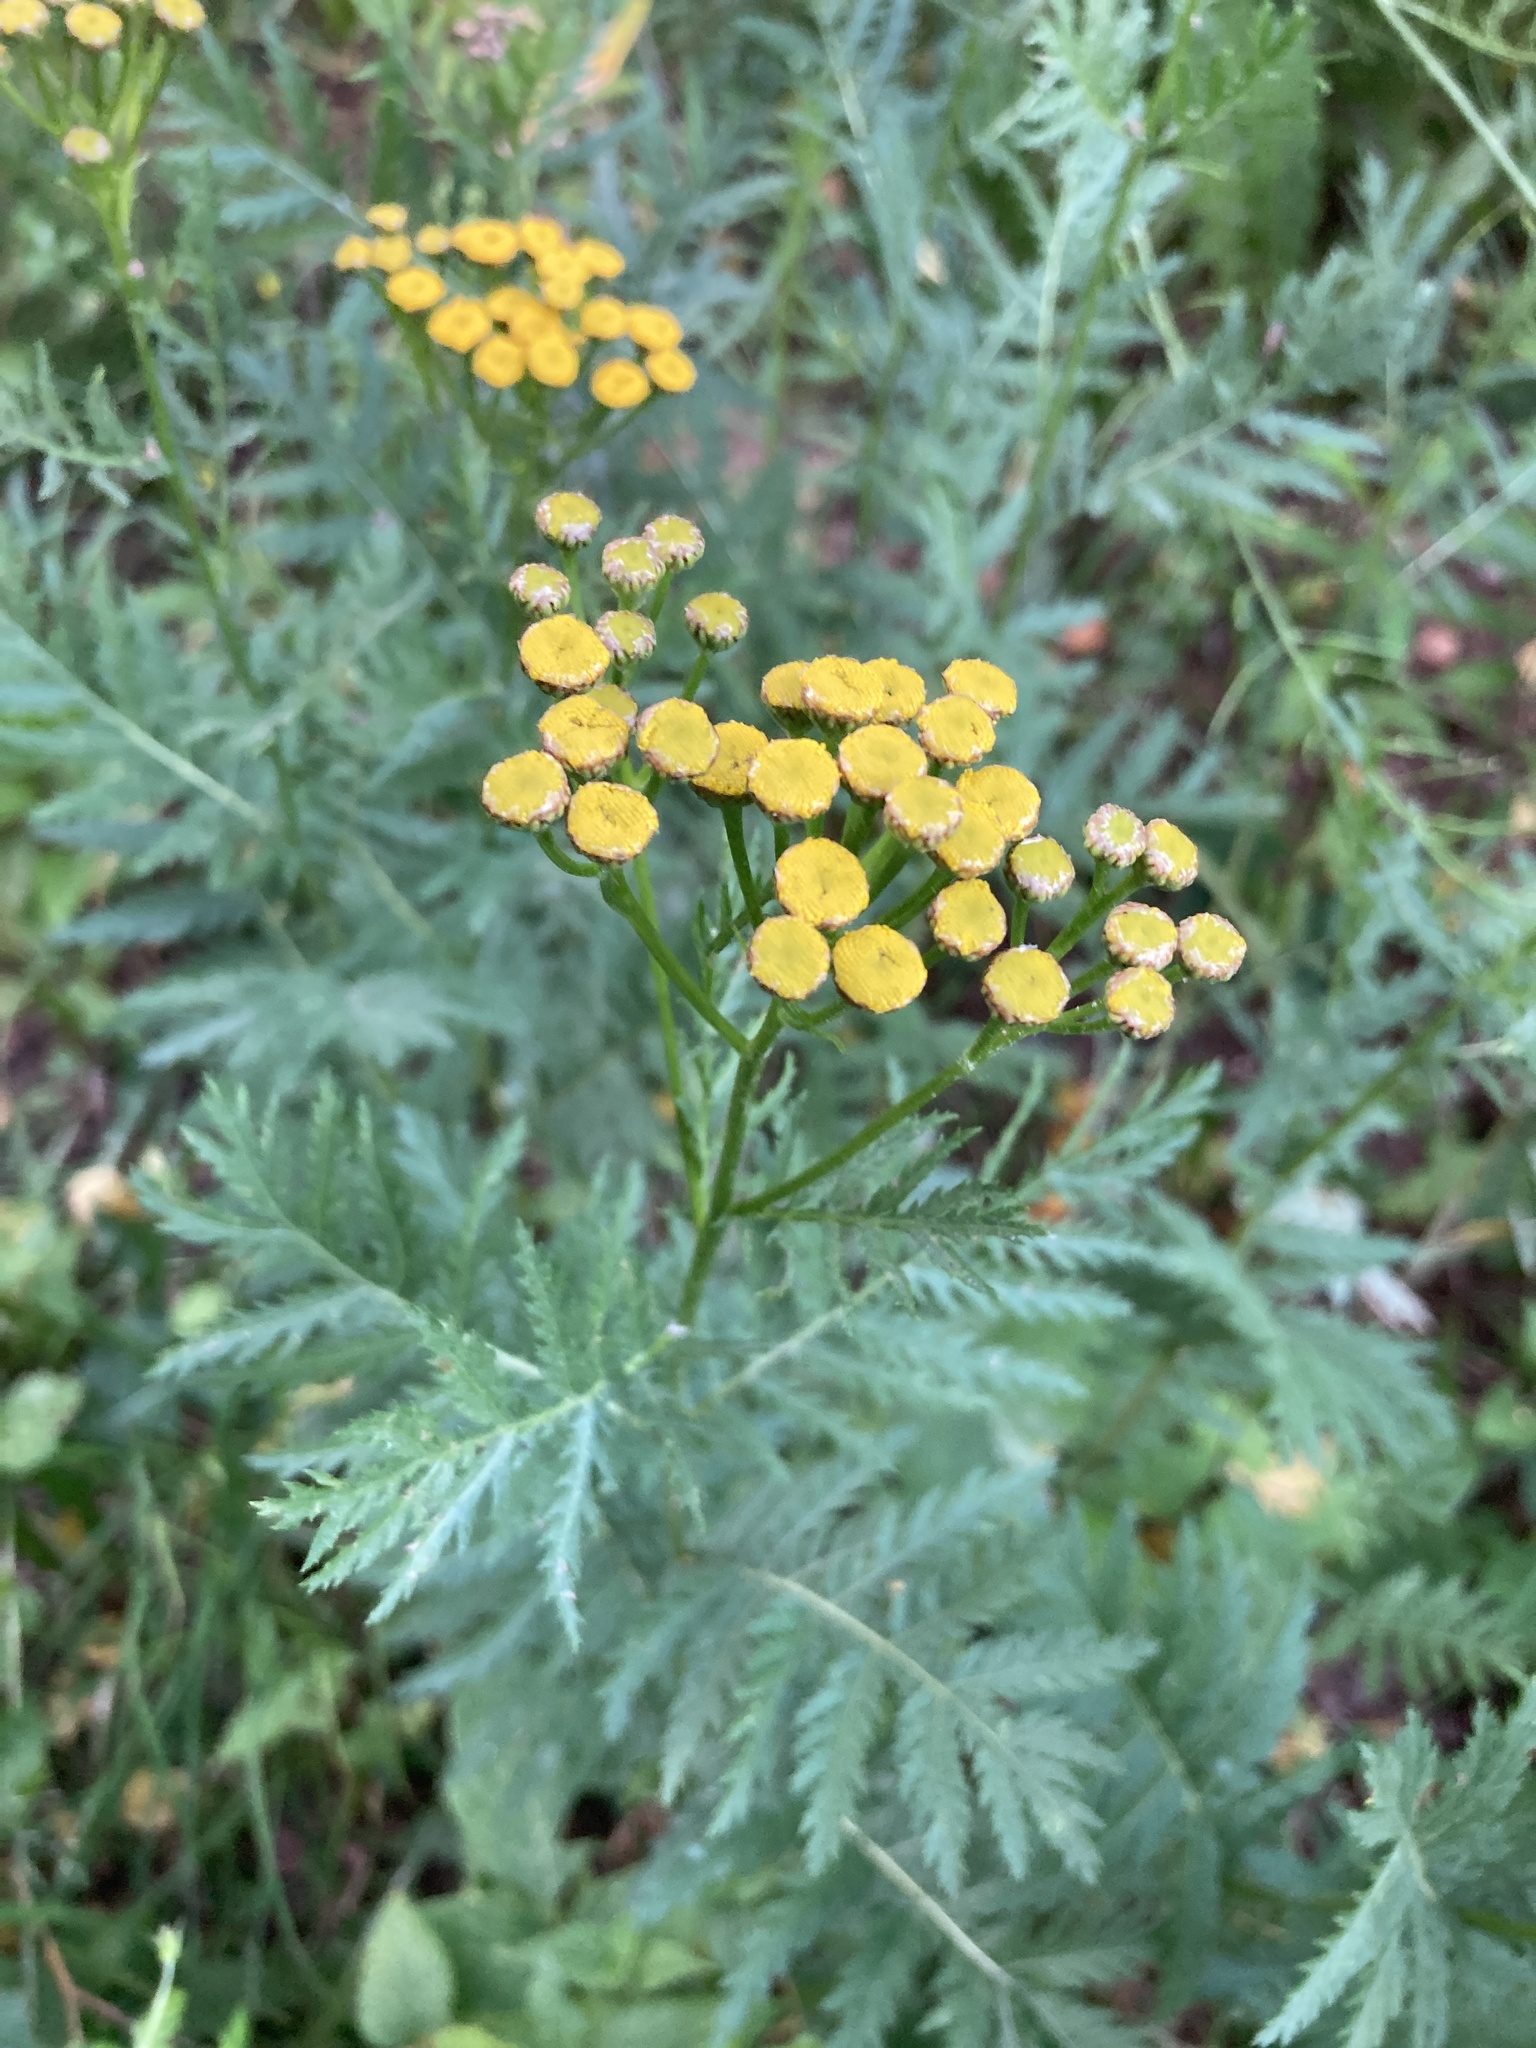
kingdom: Plantae
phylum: Tracheophyta
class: Magnoliopsida
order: Asterales
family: Asteraceae
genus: Tanacetum
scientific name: Tanacetum vulgare
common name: Common tansy
